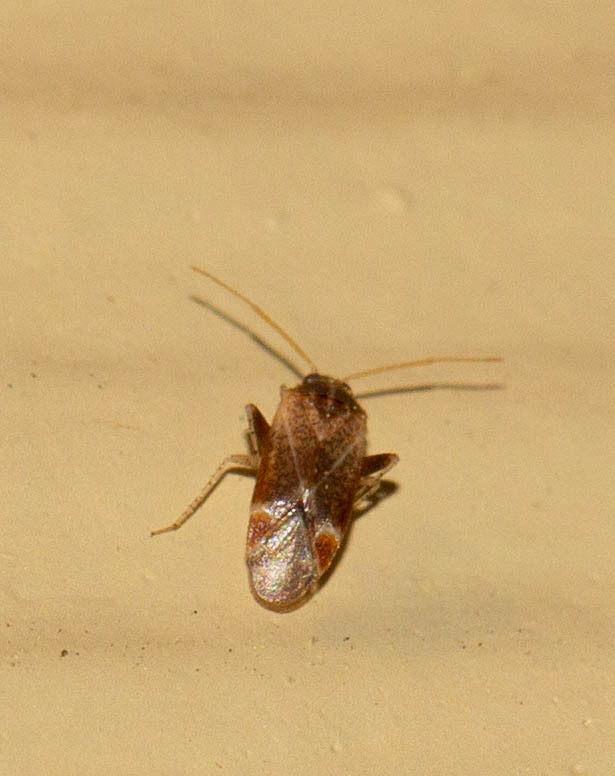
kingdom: Animalia
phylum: Arthropoda
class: Insecta
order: Hemiptera
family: Miridae
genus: Hamatophylus
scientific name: Hamatophylus guttulosus
